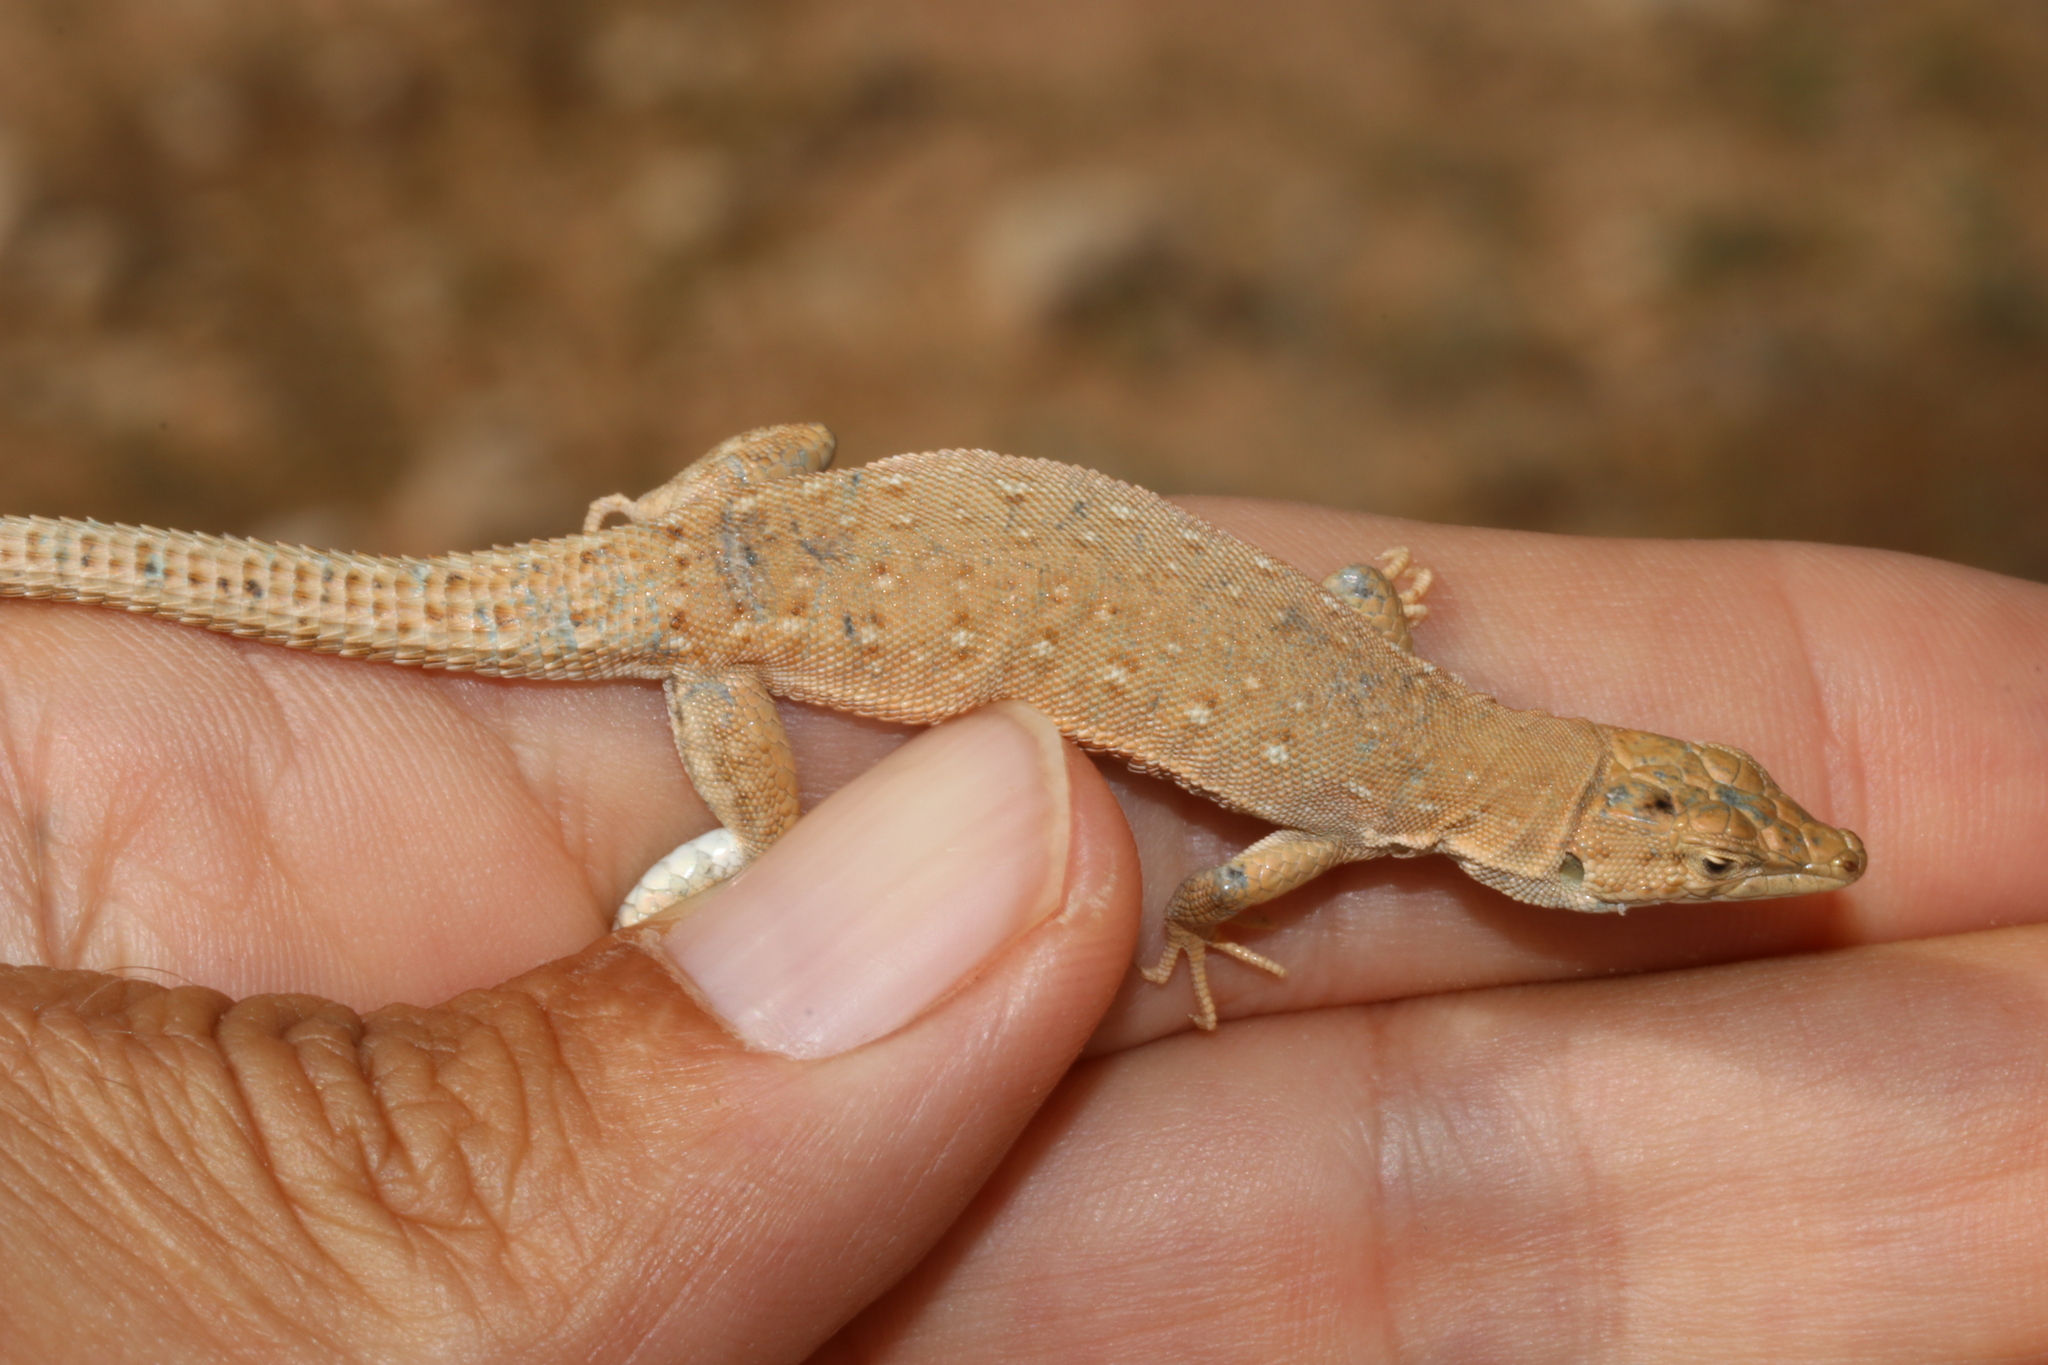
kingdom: Animalia
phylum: Chordata
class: Squamata
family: Lacertidae
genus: Mesalina
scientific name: Mesalina guttulata
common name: Desert lacerta
